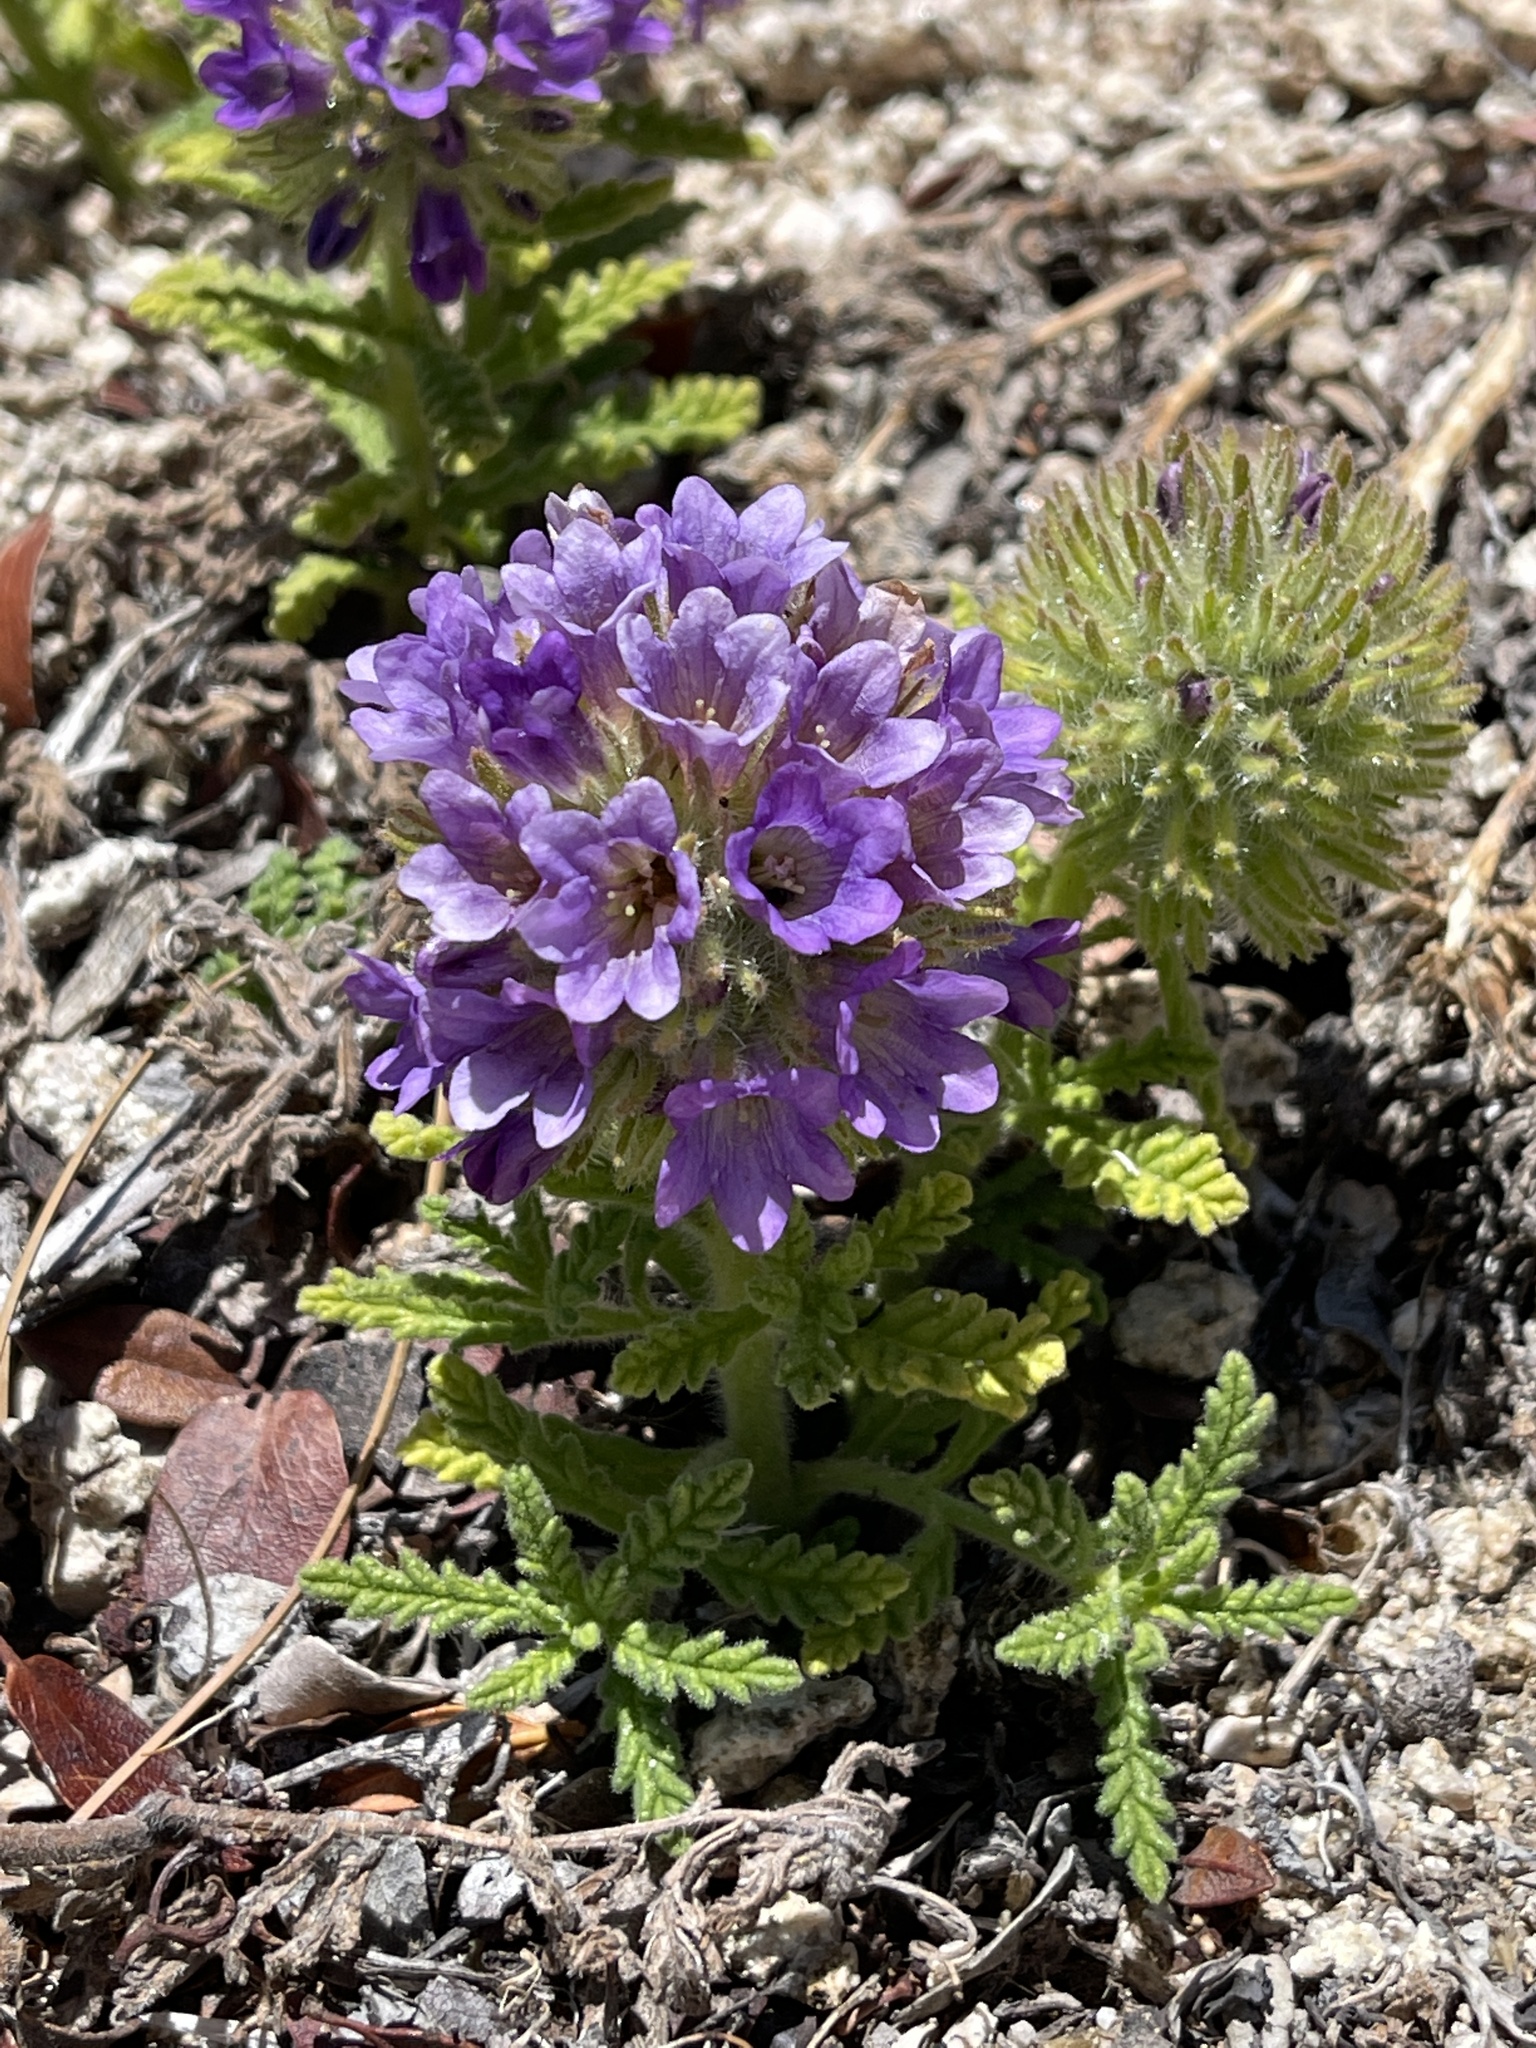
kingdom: Plantae
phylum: Tracheophyta
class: Magnoliopsida
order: Boraginales
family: Namaceae
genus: Nama
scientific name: Nama rothrockii
